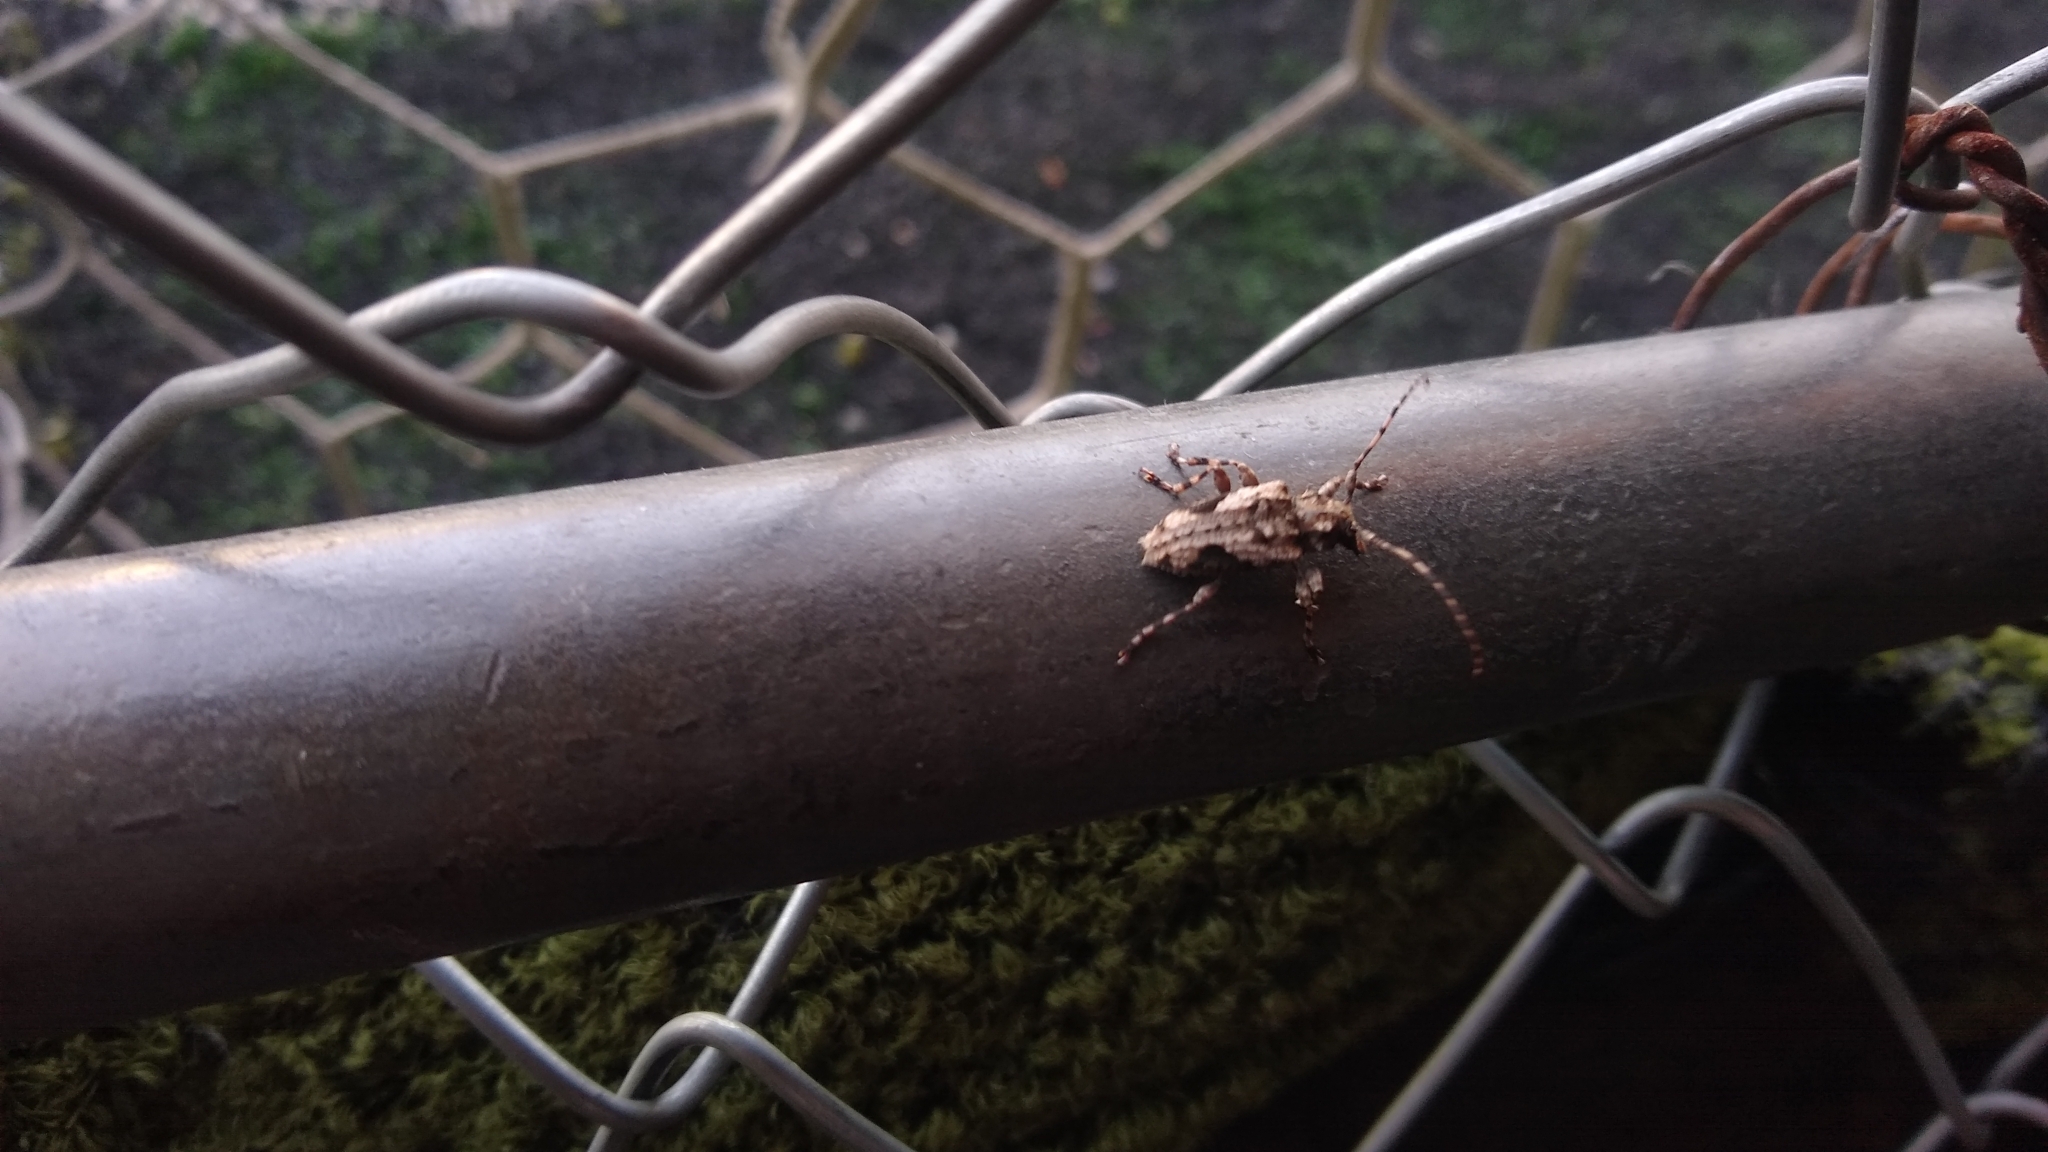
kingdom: Animalia
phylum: Arthropoda
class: Insecta
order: Coleoptera
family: Cerambycidae
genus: Psapharochrus
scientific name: Psapharochrus jaspideus
